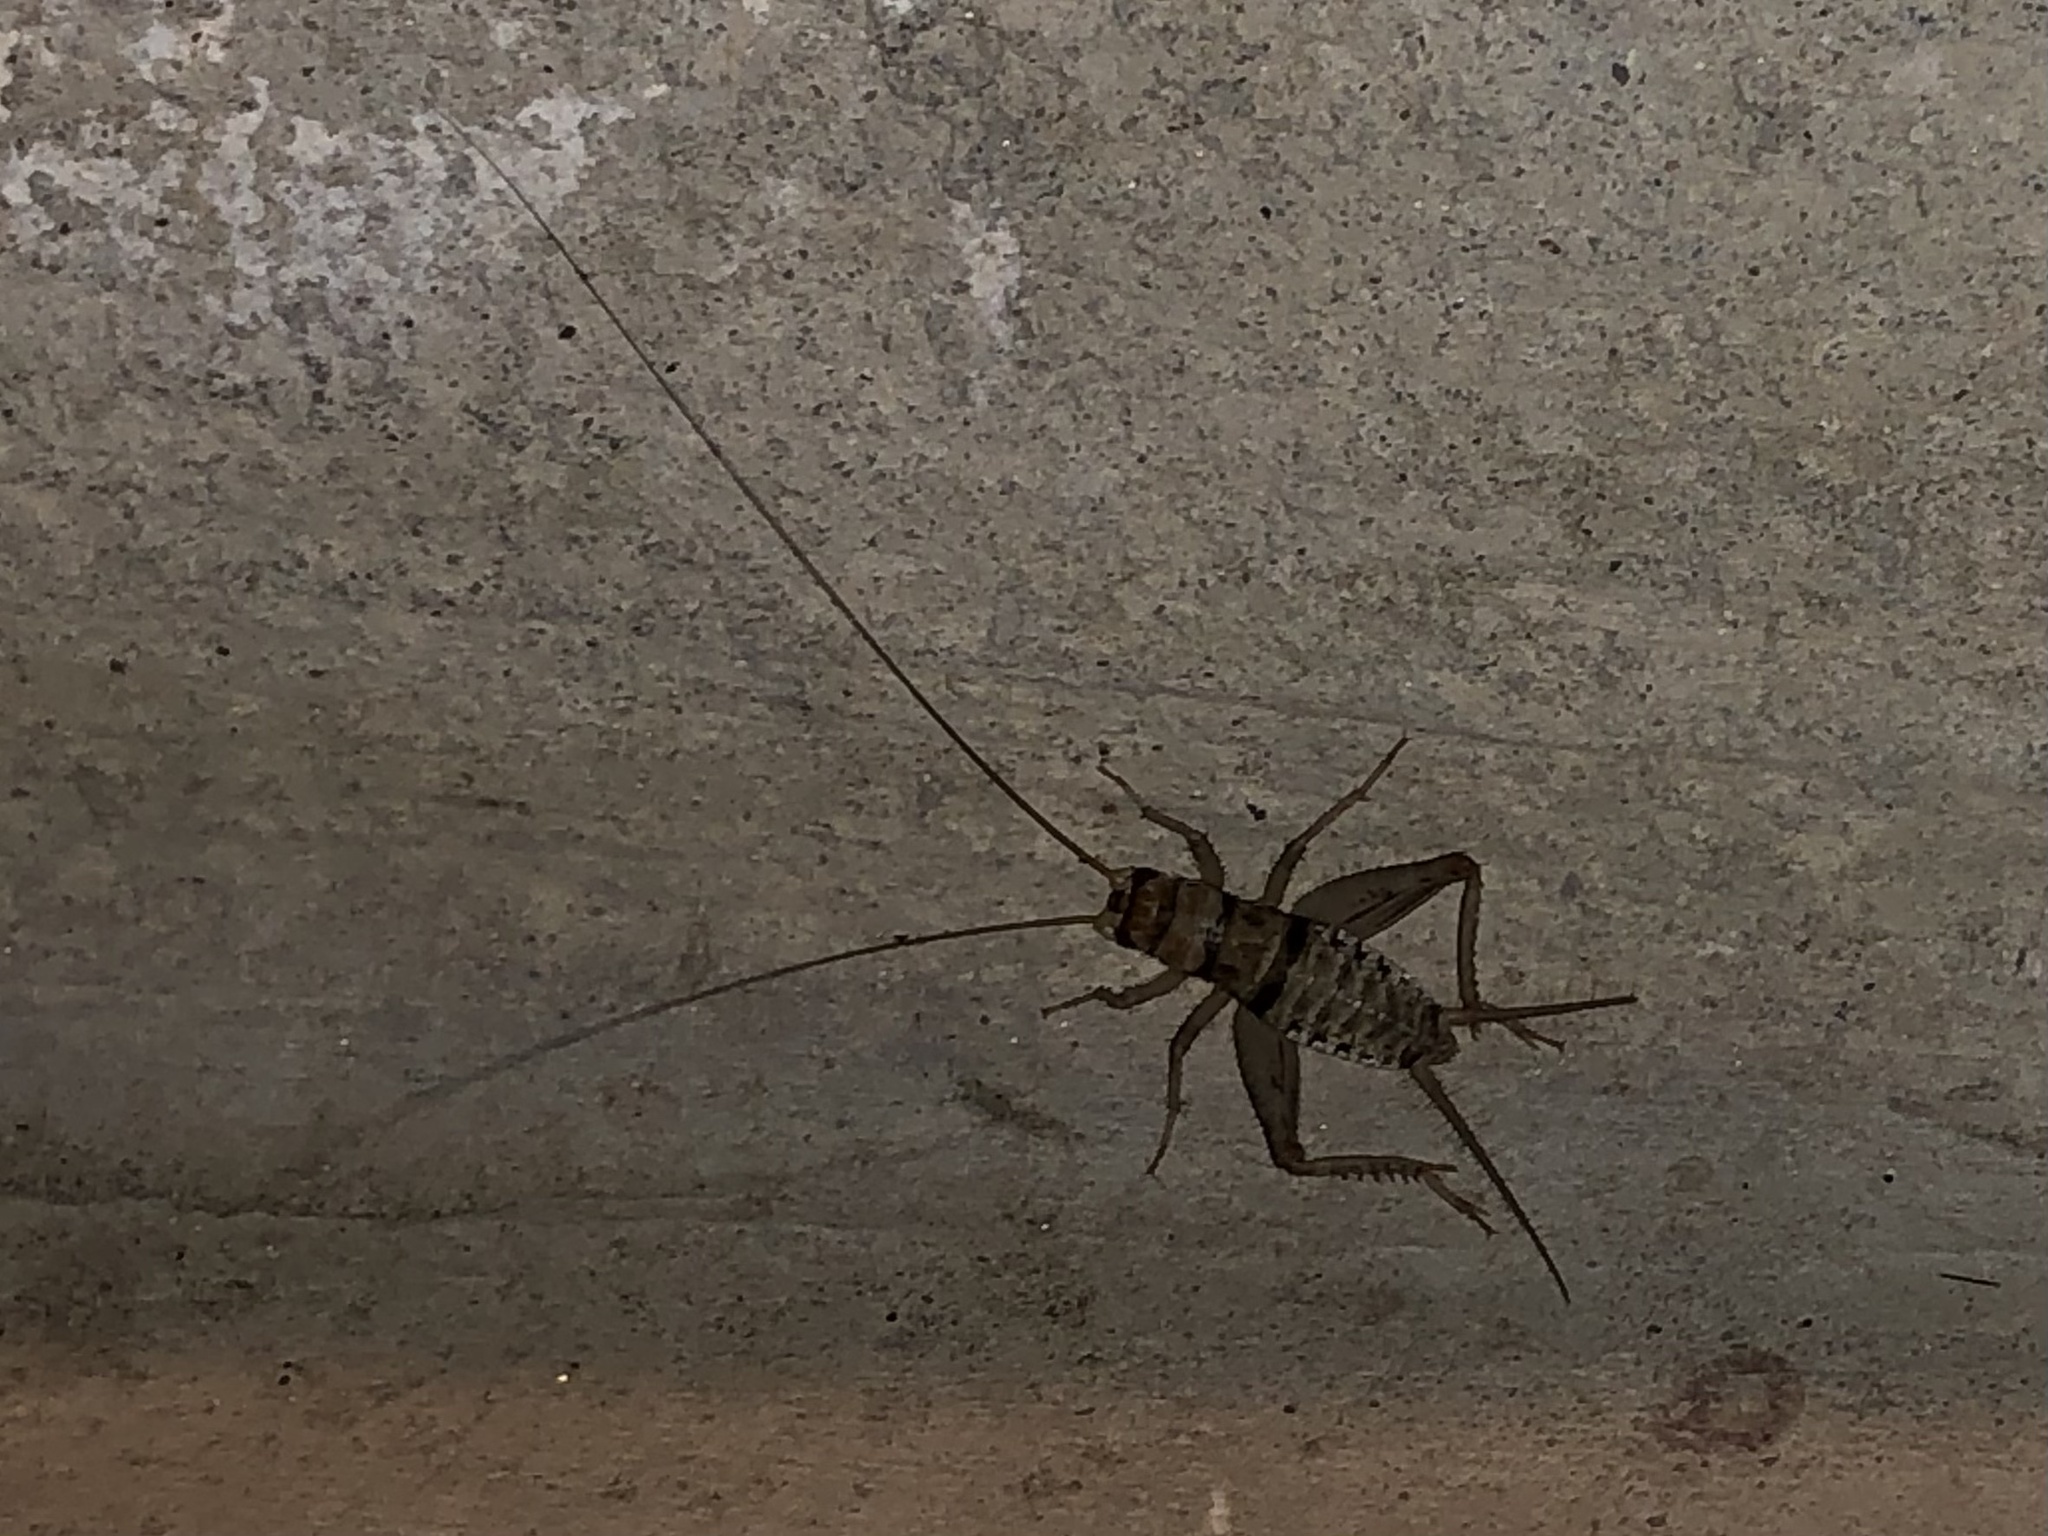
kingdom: Animalia
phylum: Arthropoda
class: Insecta
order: Orthoptera
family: Gryllidae
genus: Gryllodes
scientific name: Gryllodes sigillatus
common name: Tropical house cricket
